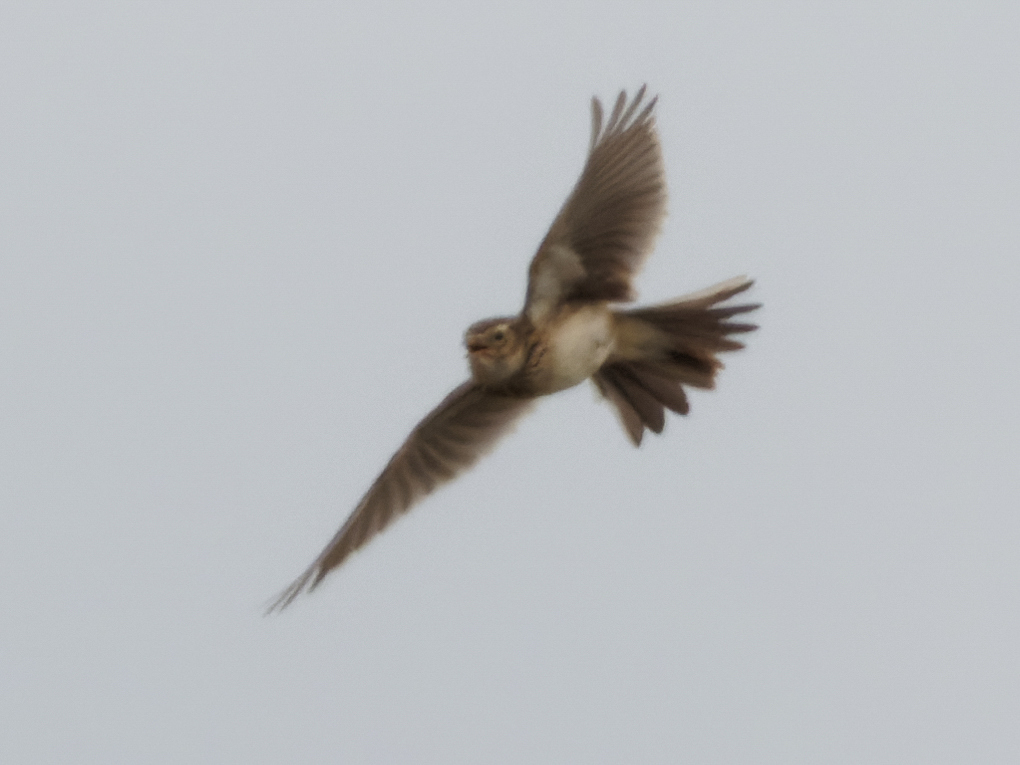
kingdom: Animalia
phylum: Chordata
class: Aves
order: Passeriformes
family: Alaudidae
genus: Alauda
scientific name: Alauda arvensis
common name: Eurasian skylark
